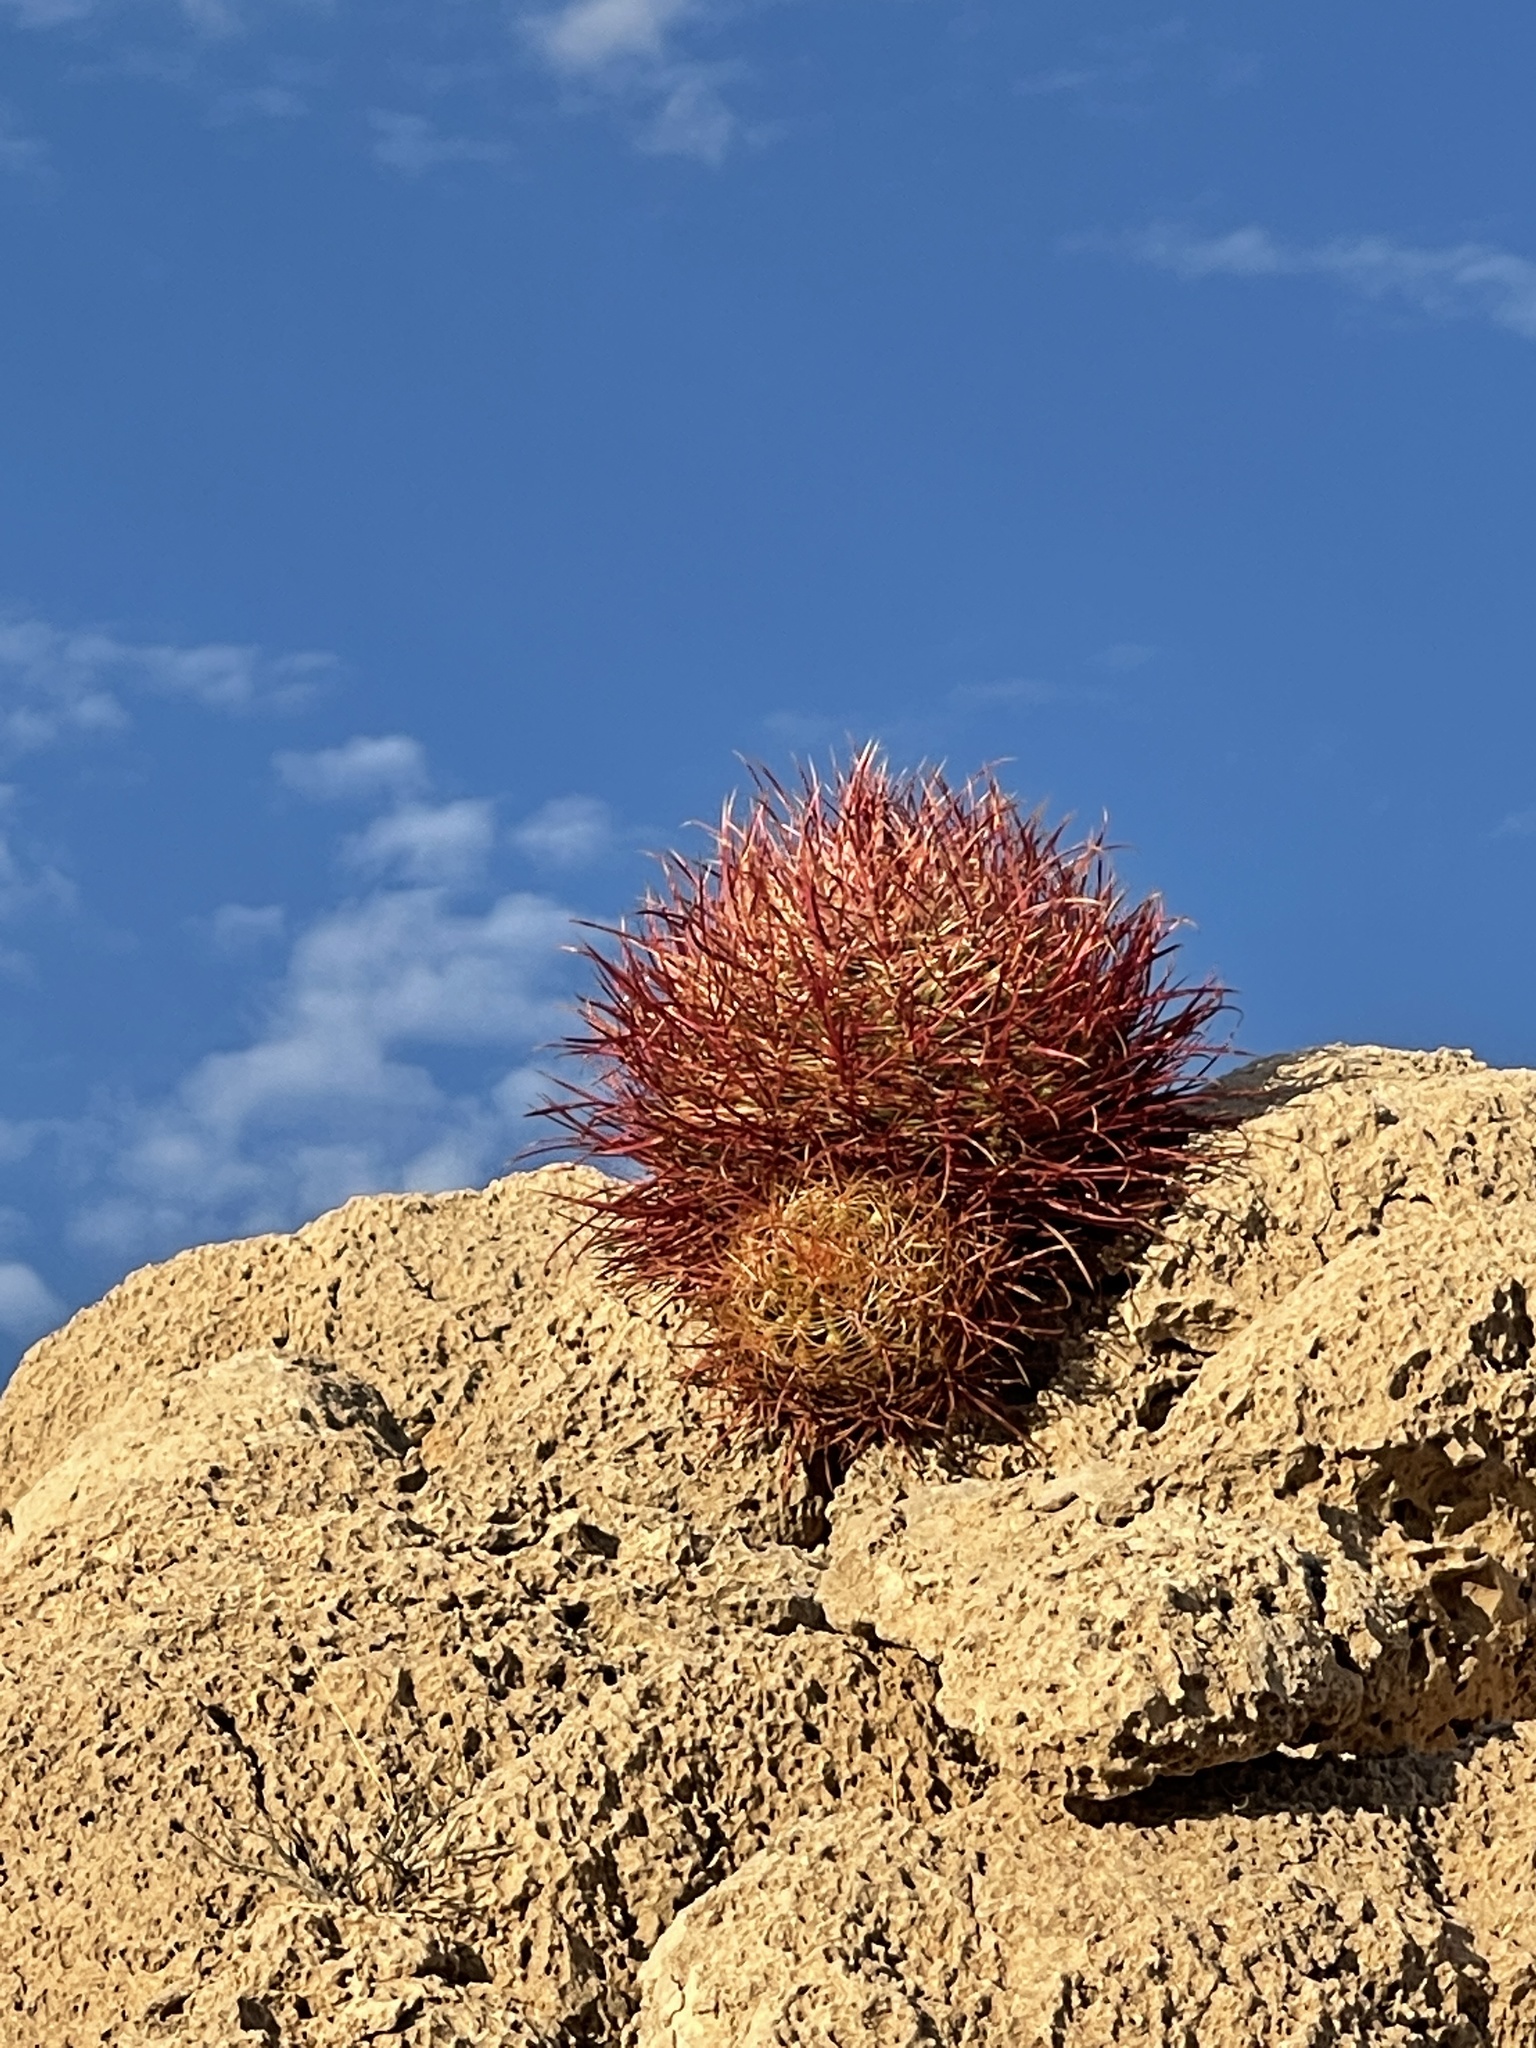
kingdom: Plantae
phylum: Tracheophyta
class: Magnoliopsida
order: Caryophyllales
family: Cactaceae
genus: Ferocactus
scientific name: Ferocactus cylindraceus
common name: California barrel cactus
